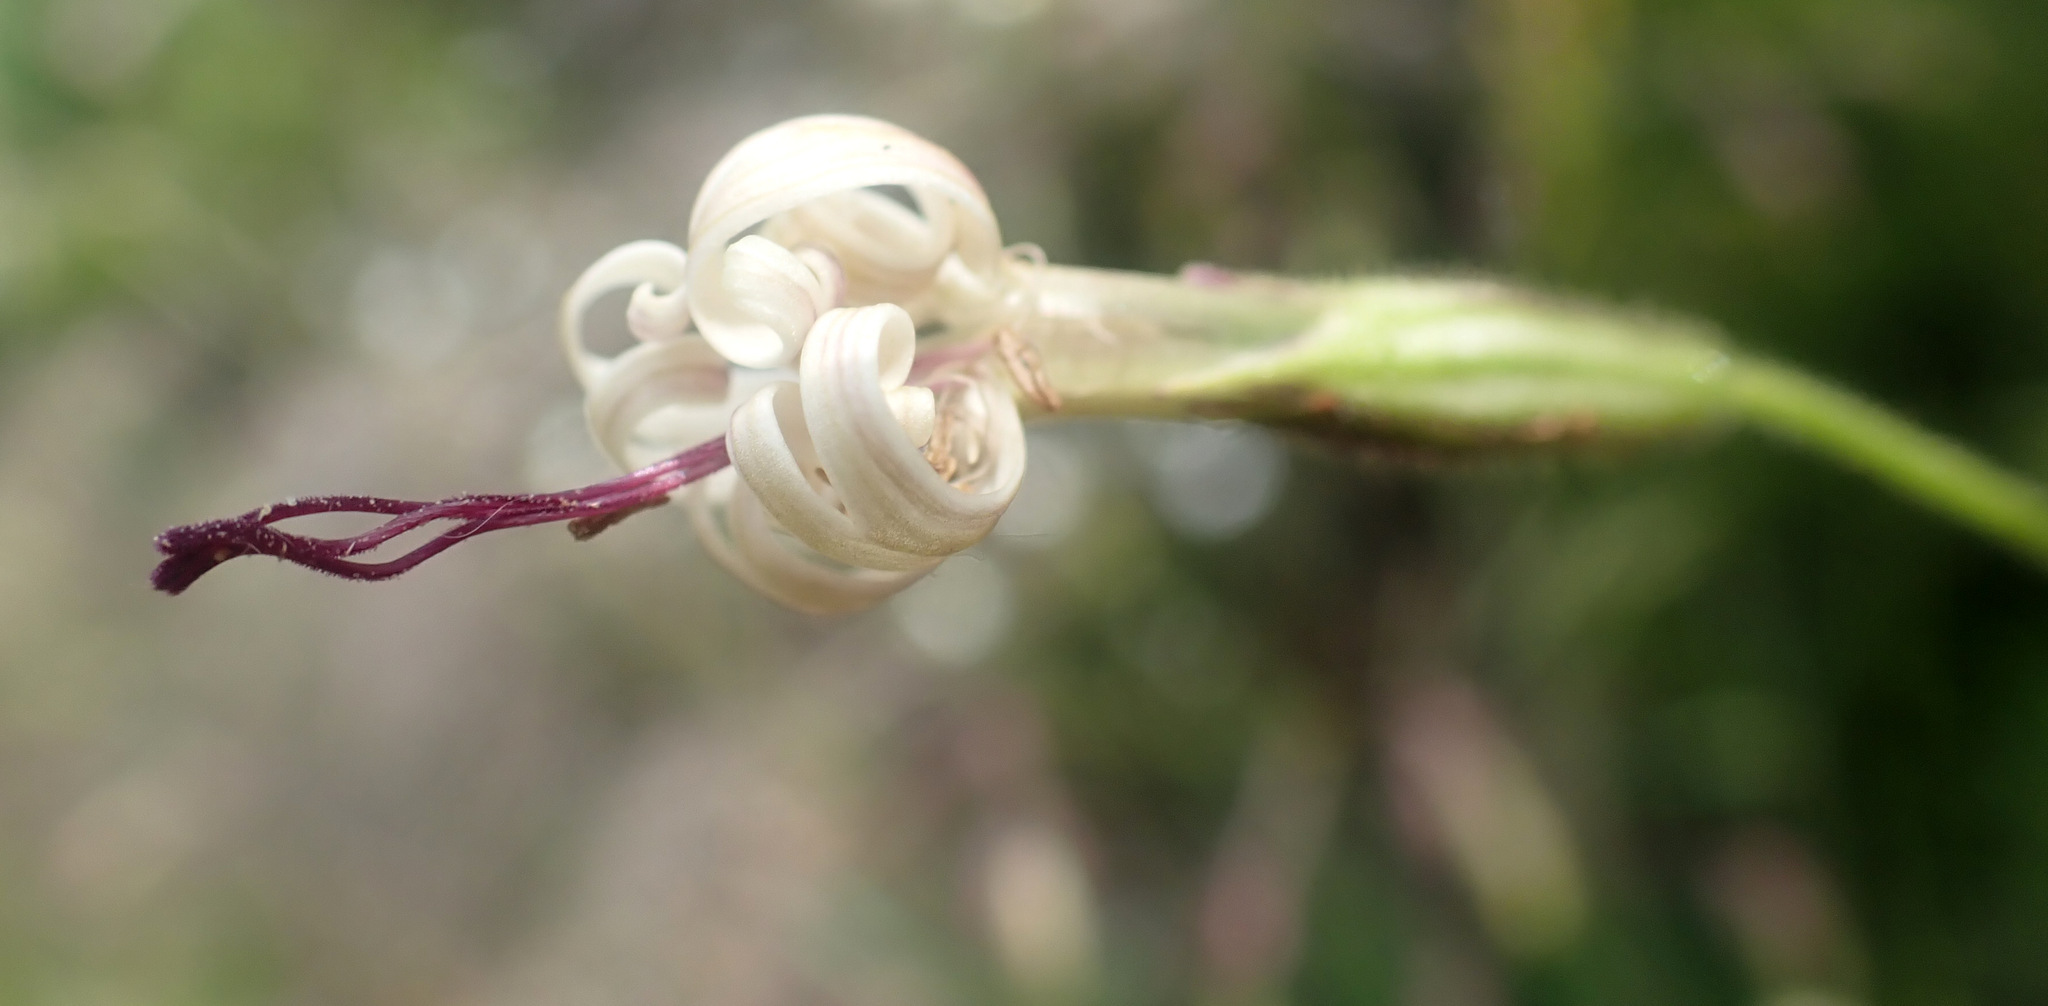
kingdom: Plantae
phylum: Tracheophyta
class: Magnoliopsida
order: Caryophyllales
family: Caryophyllaceae
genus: Silene
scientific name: Silene nutans
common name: Nottingham catchfly
